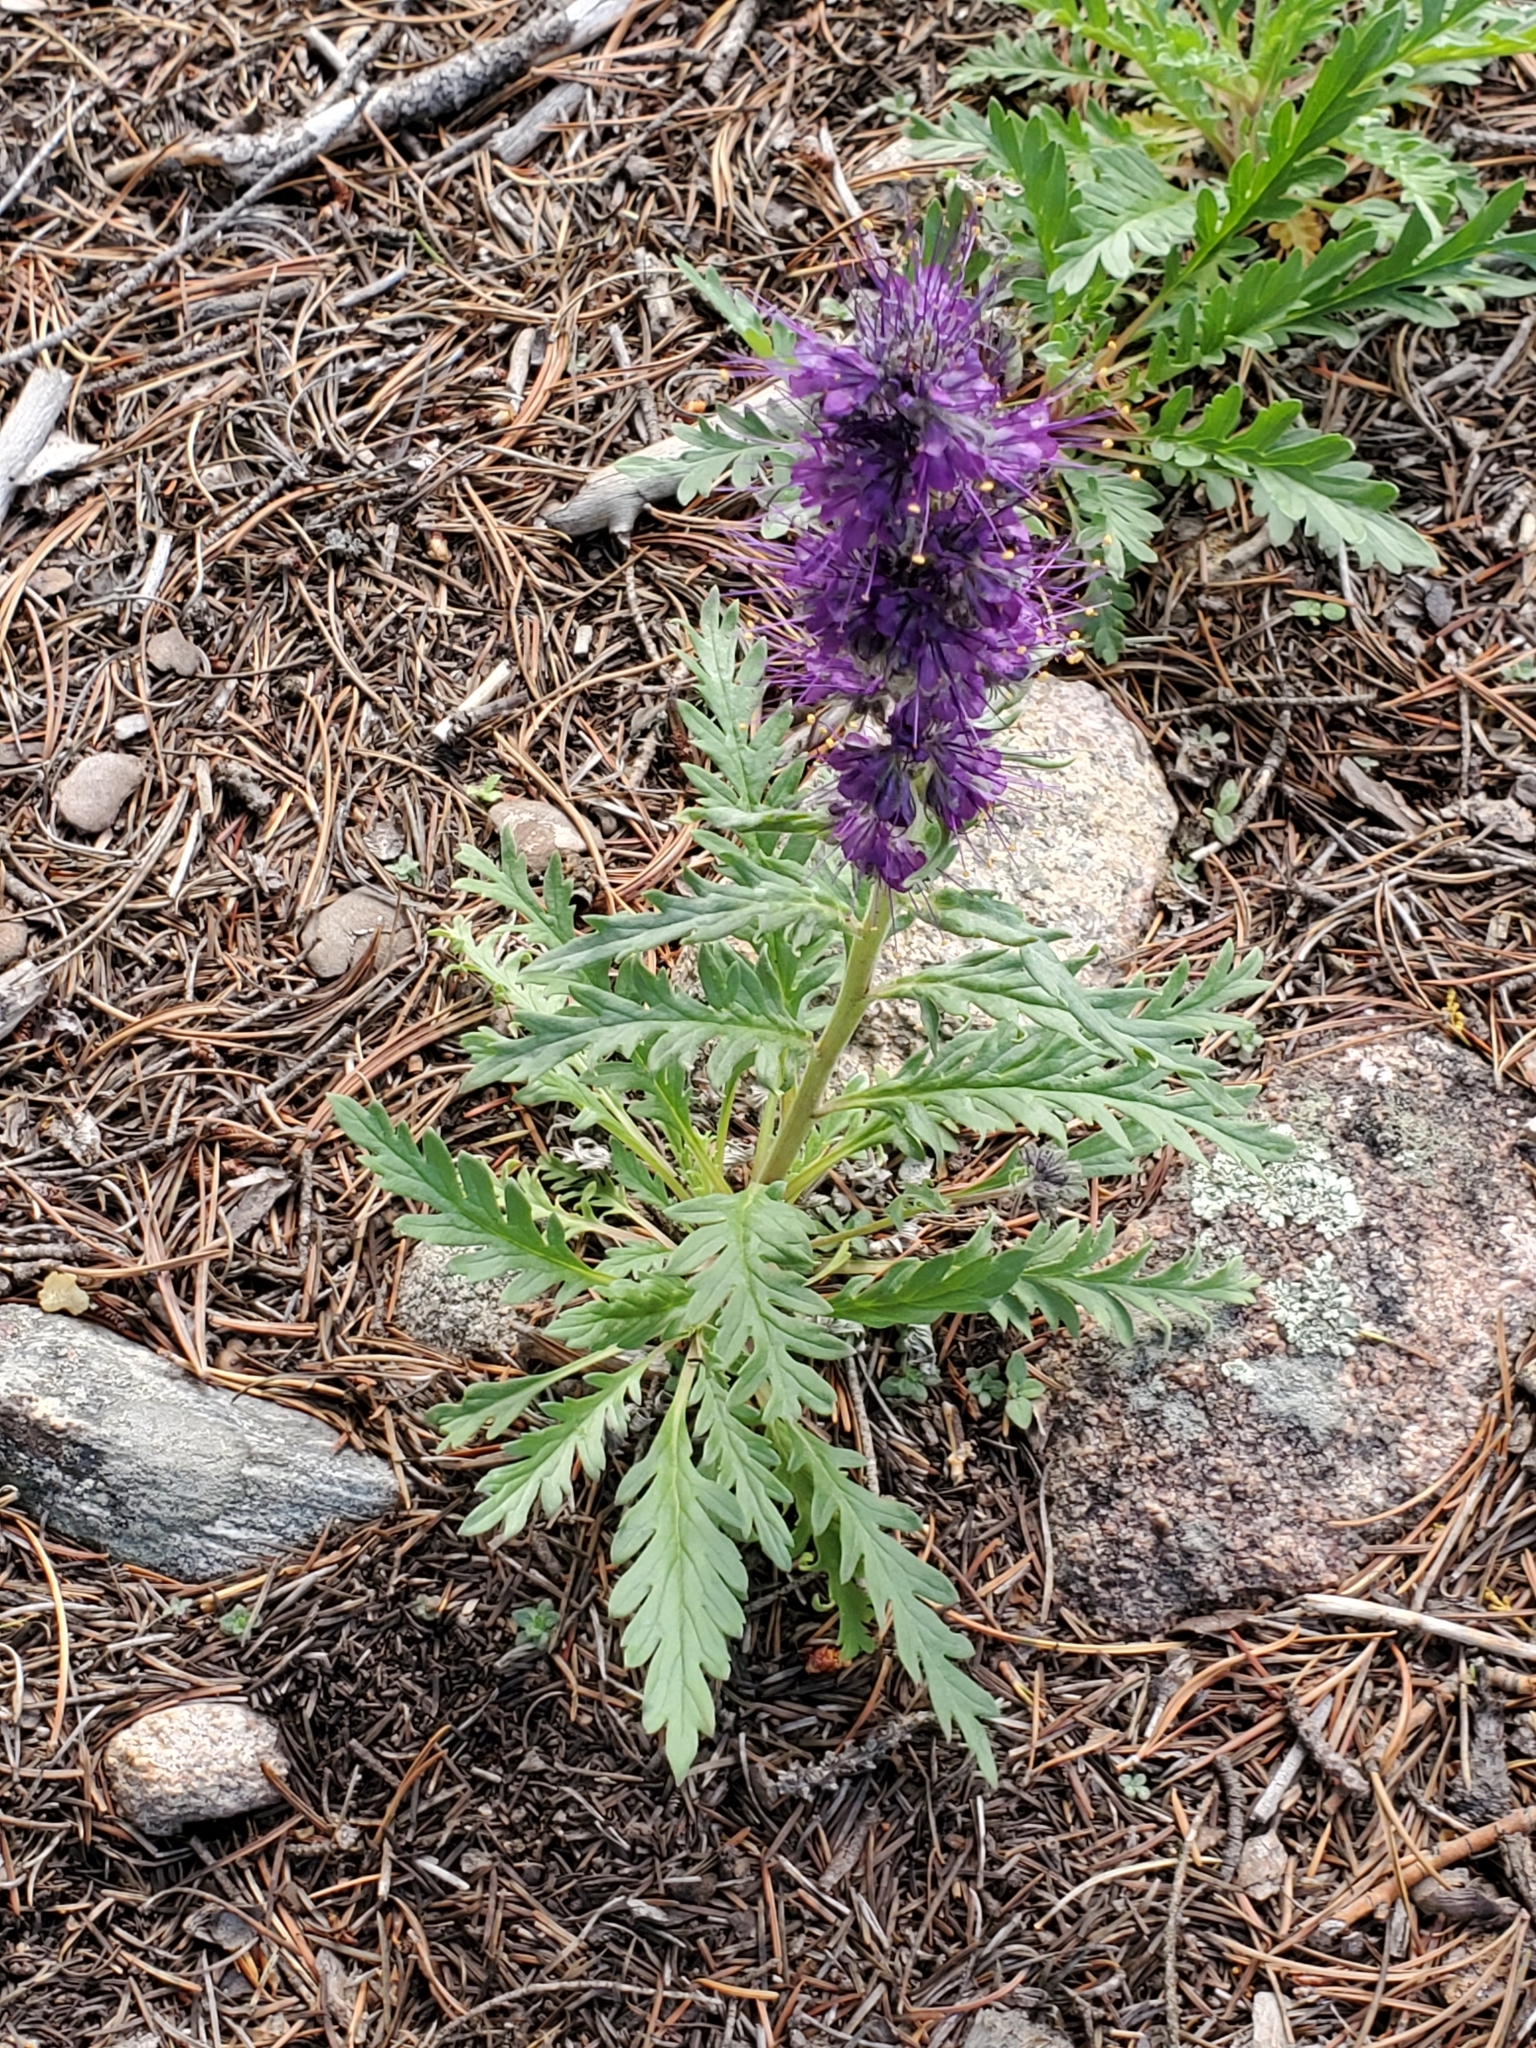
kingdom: Plantae
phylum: Tracheophyta
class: Magnoliopsida
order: Boraginales
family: Hydrophyllaceae
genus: Phacelia
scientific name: Phacelia sericea
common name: Silky phacelia
